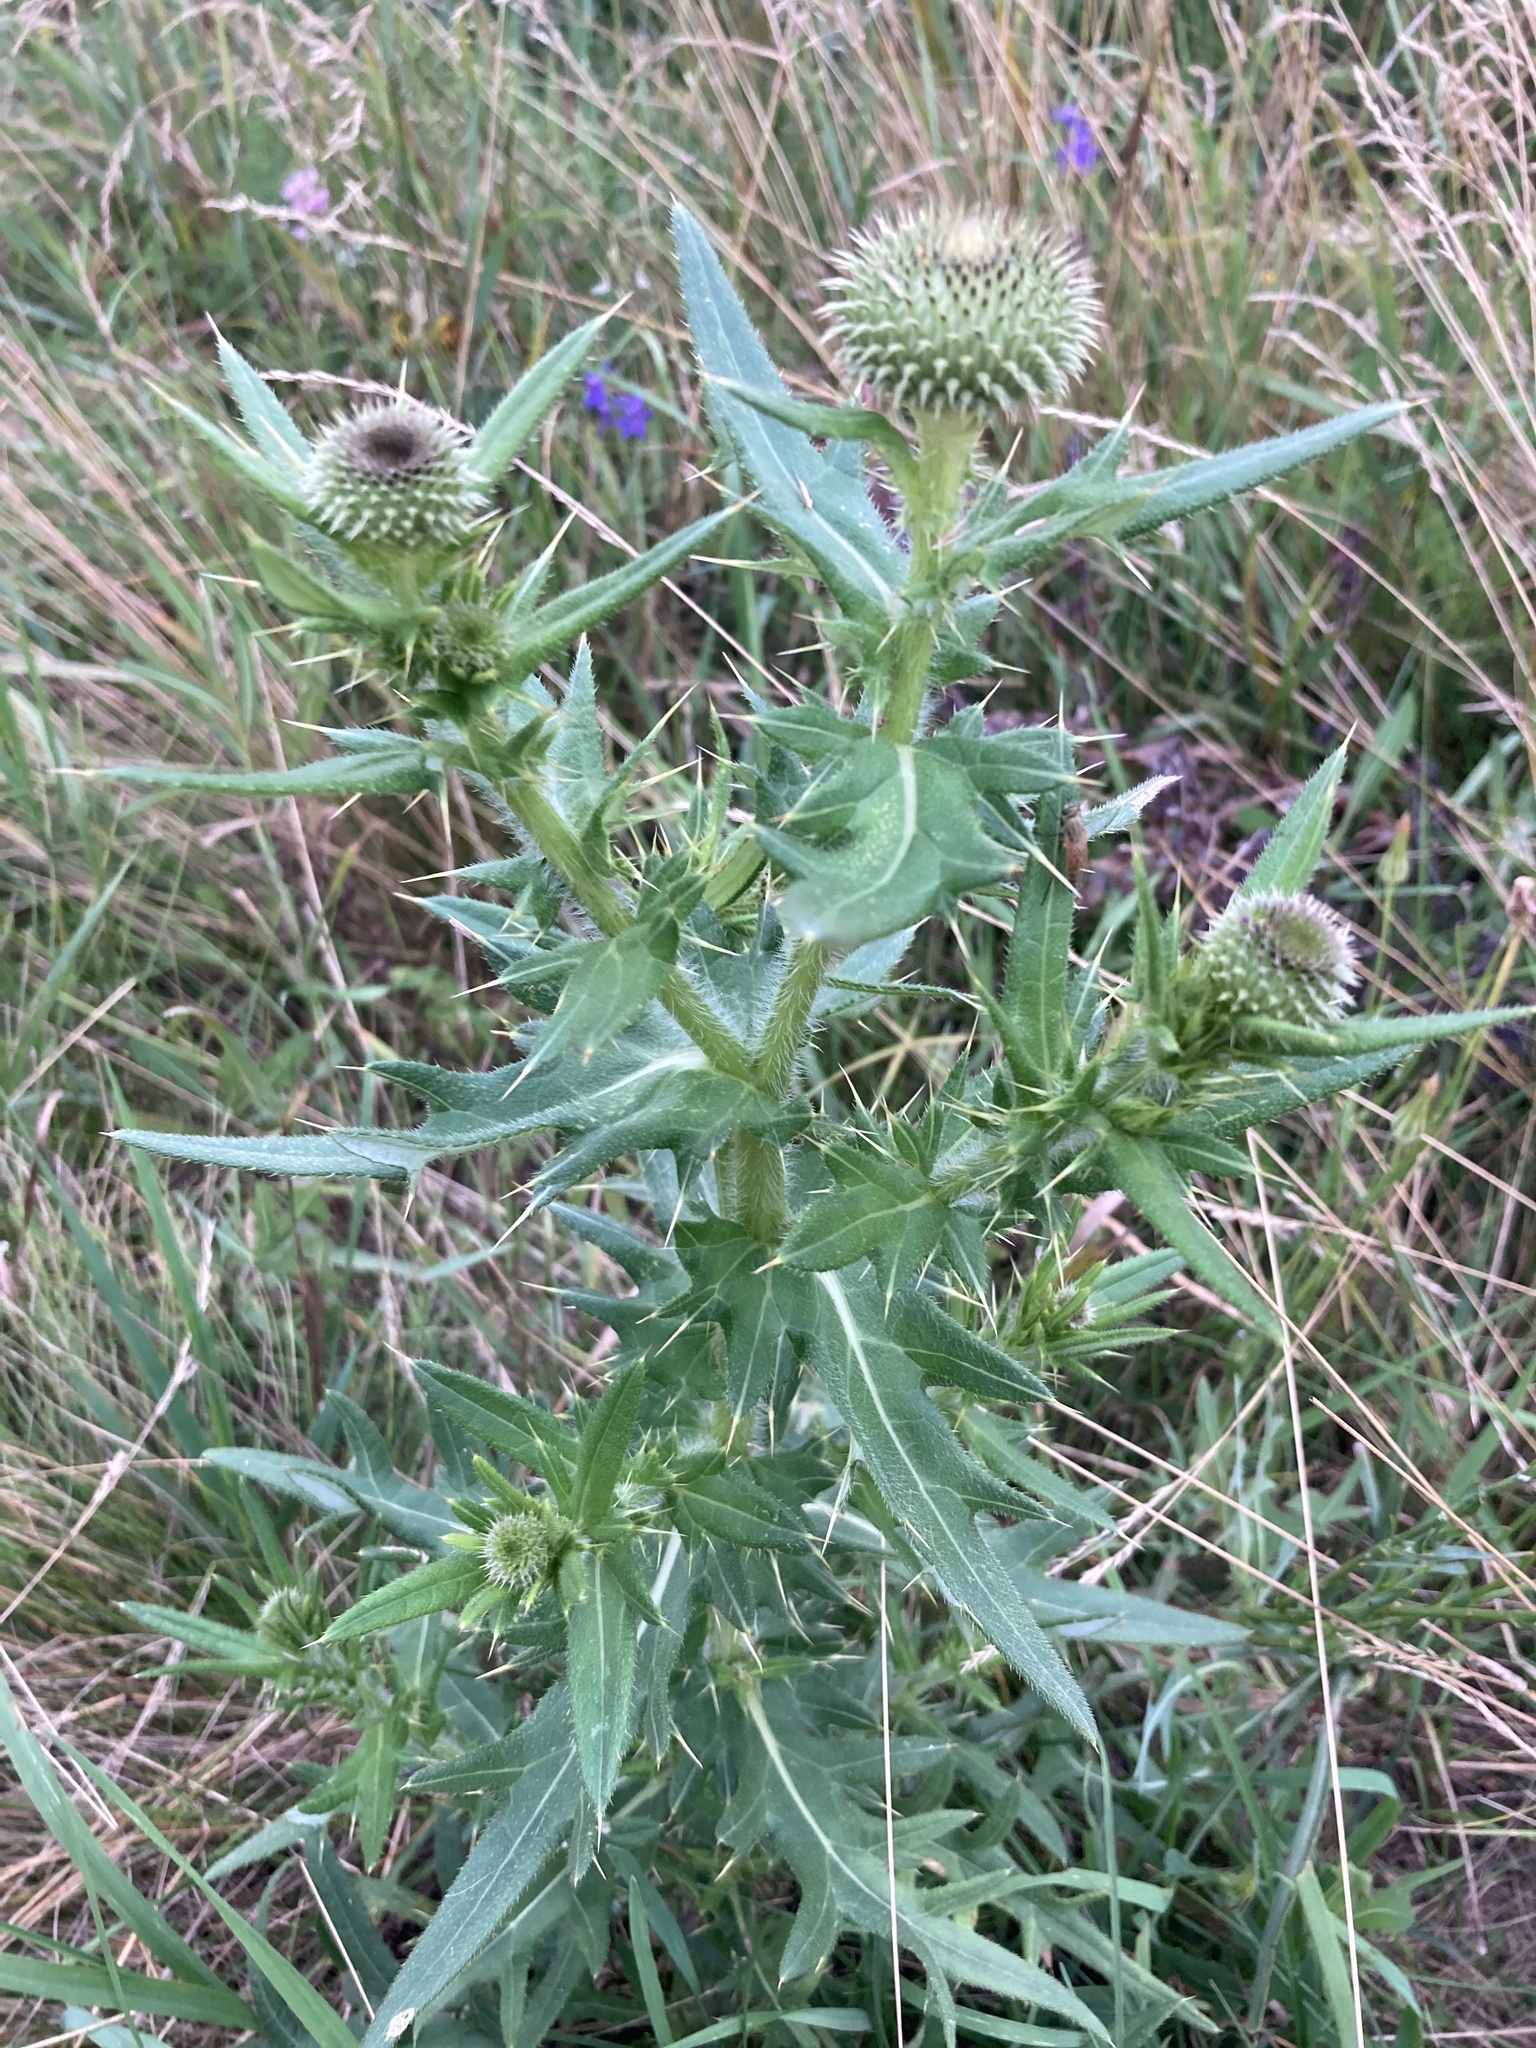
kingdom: Plantae
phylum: Tracheophyta
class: Magnoliopsida
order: Asterales
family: Asteraceae
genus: Cirsium
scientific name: Cirsium serrulatum
